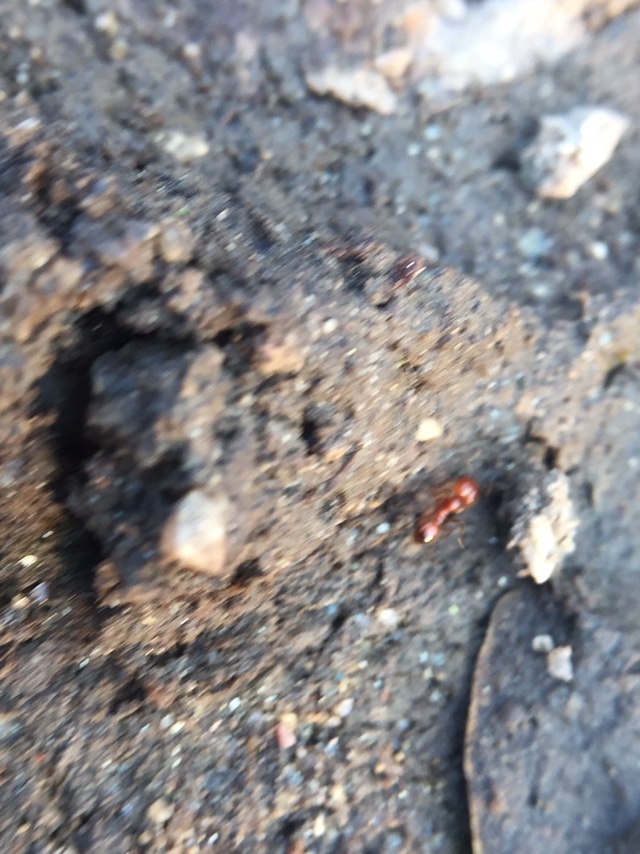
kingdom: Animalia
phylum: Arthropoda
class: Insecta
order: Hymenoptera
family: Formicidae
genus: Solenopsis
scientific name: Solenopsis geminata
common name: Tropical fire ant
